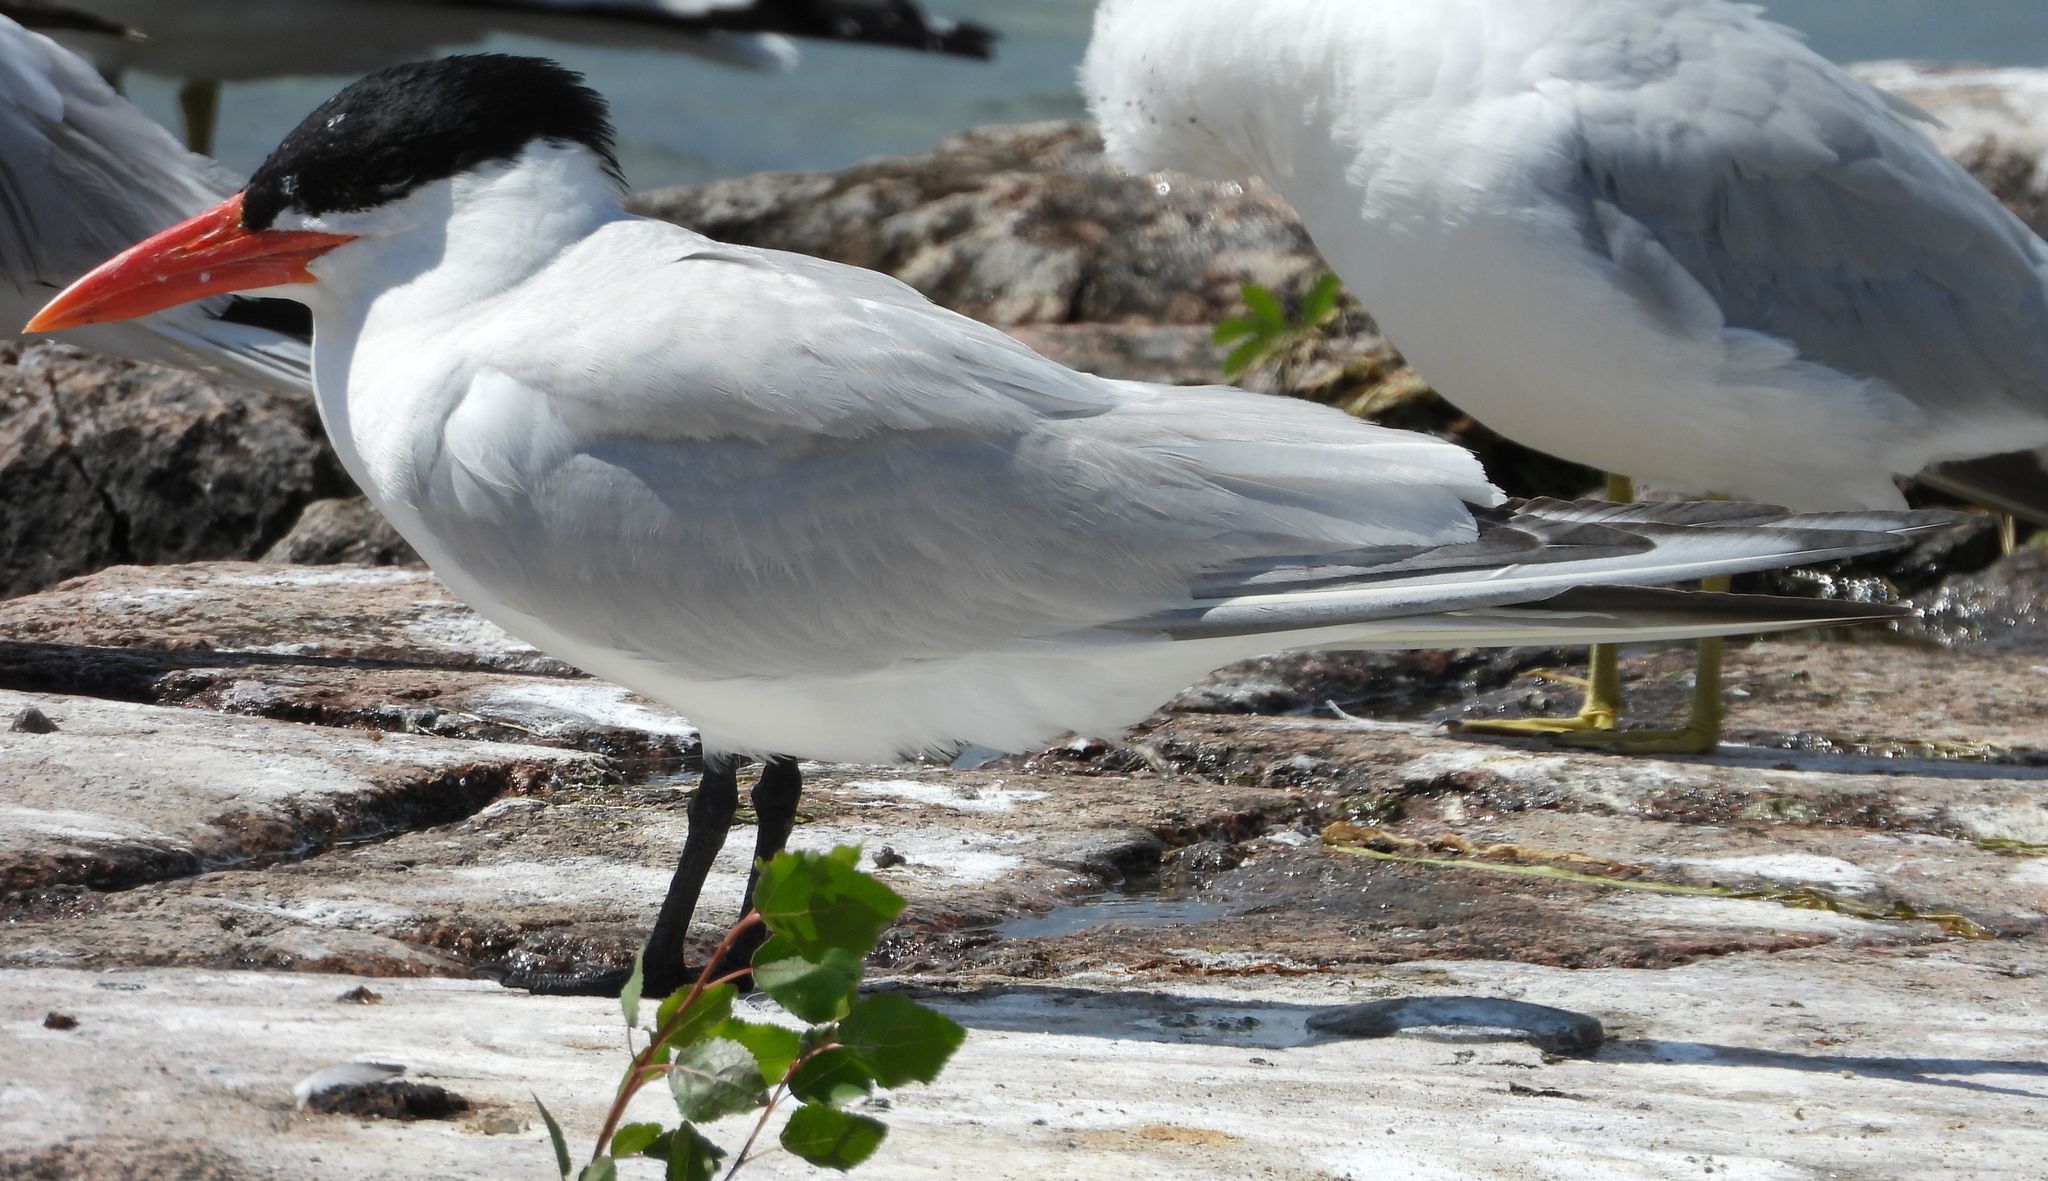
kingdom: Animalia
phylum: Chordata
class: Aves
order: Charadriiformes
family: Laridae
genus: Hydroprogne
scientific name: Hydroprogne caspia
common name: Caspian tern
